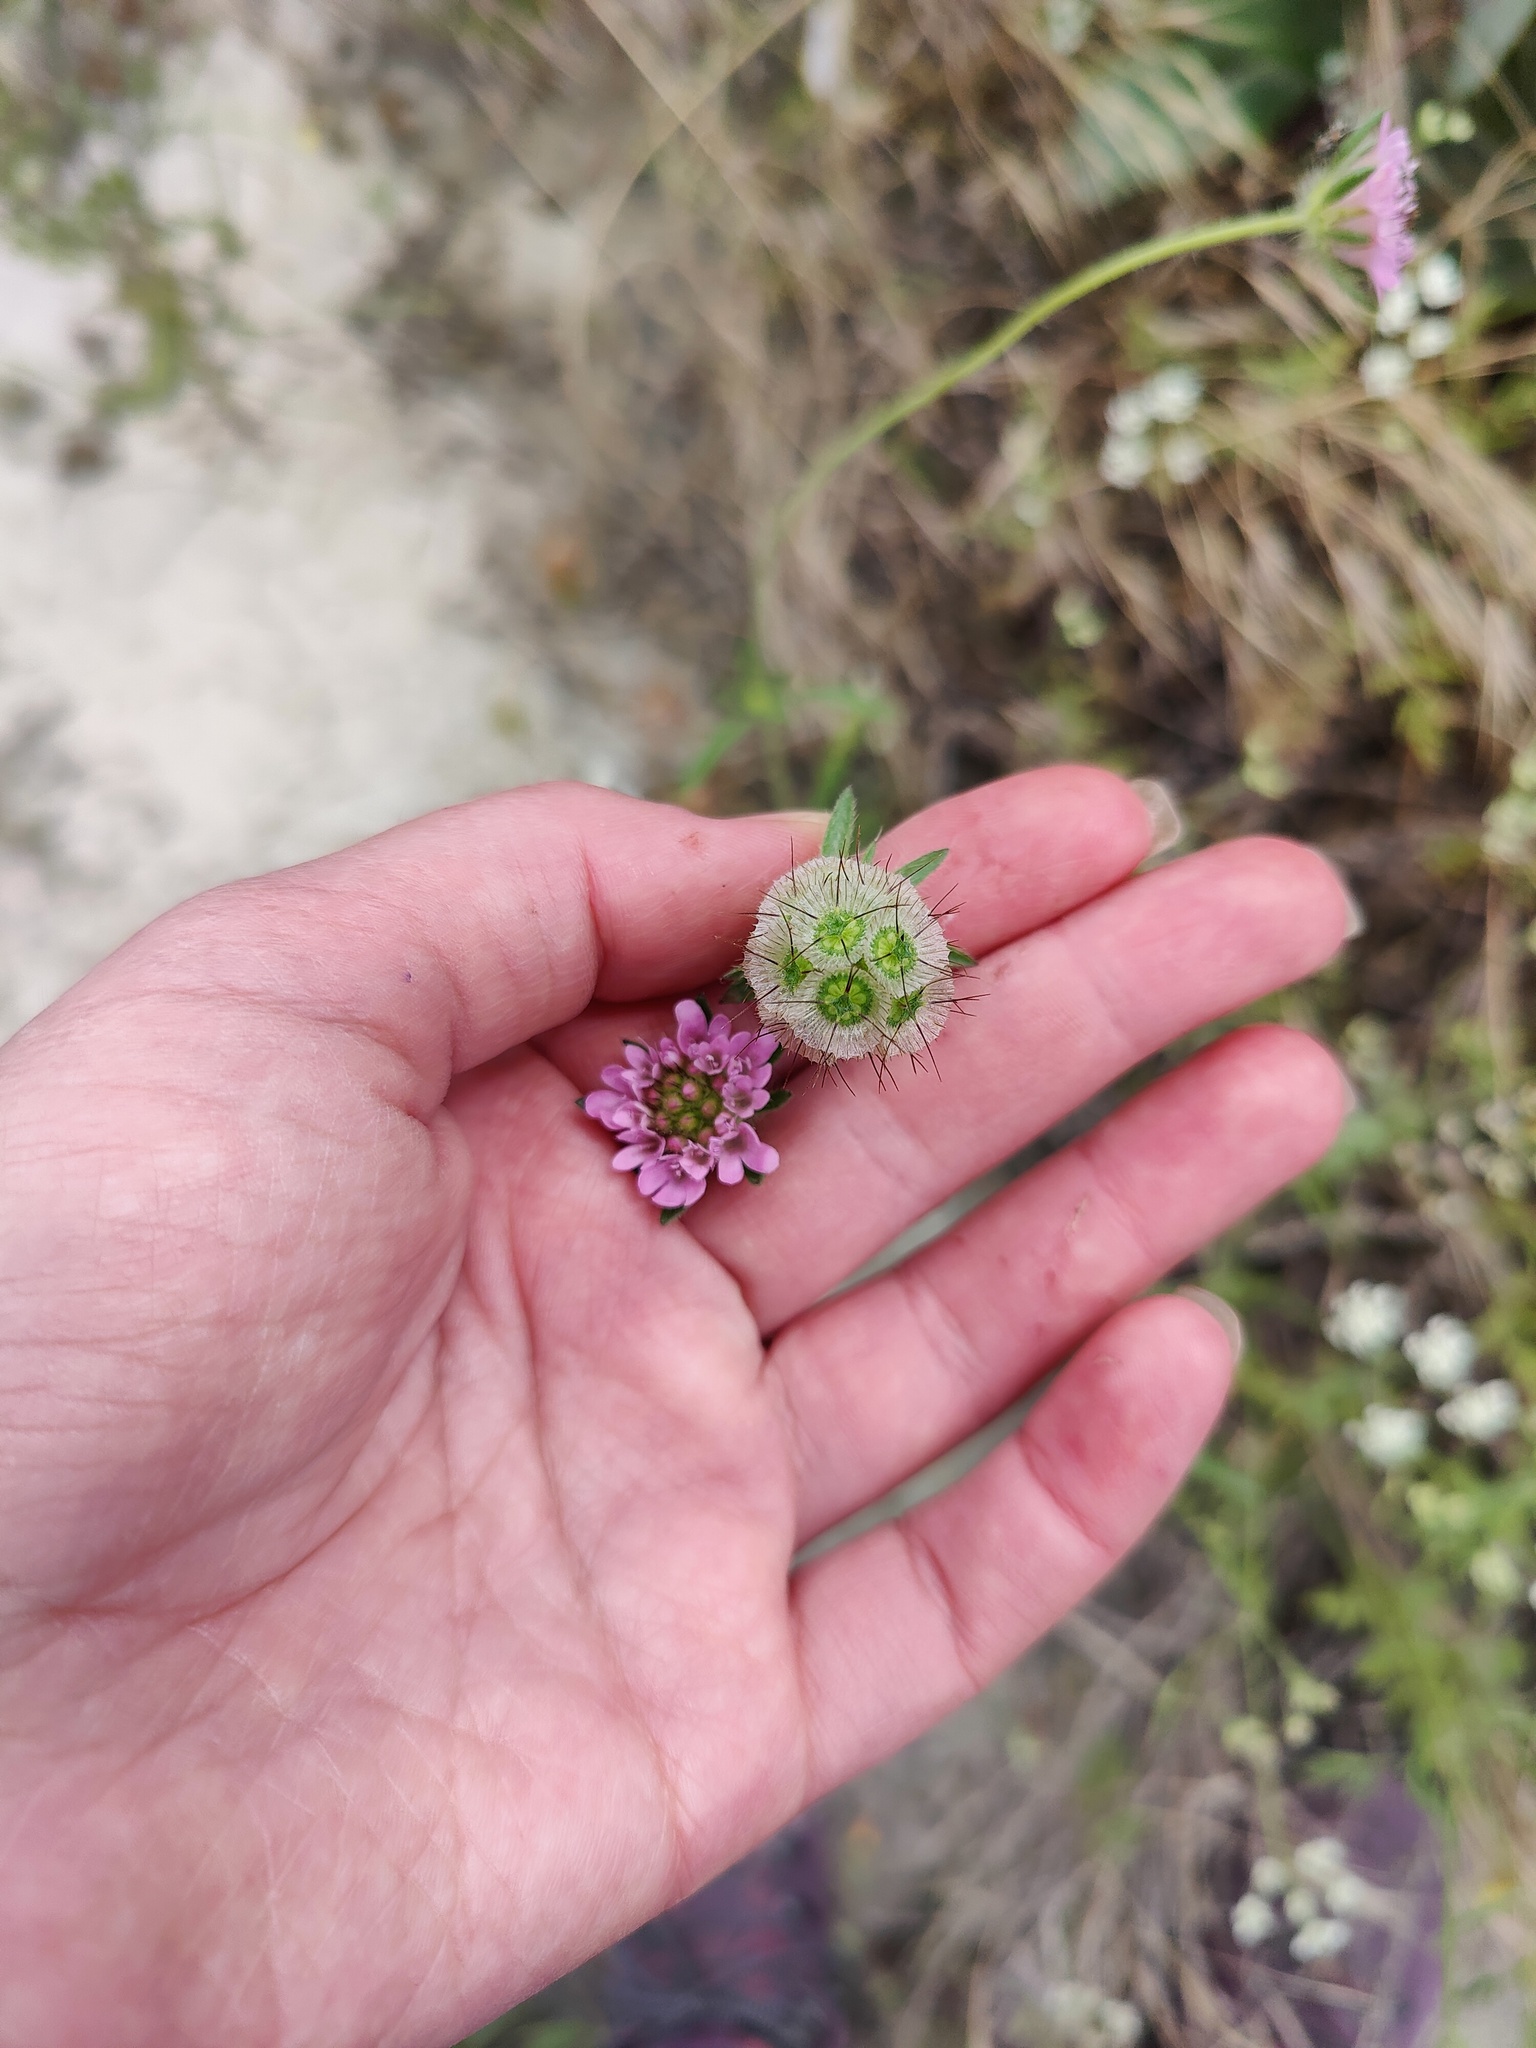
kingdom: Plantae
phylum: Tracheophyta
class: Magnoliopsida
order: Dipsacales
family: Caprifoliaceae
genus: Lomelosia
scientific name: Lomelosia micrantha
